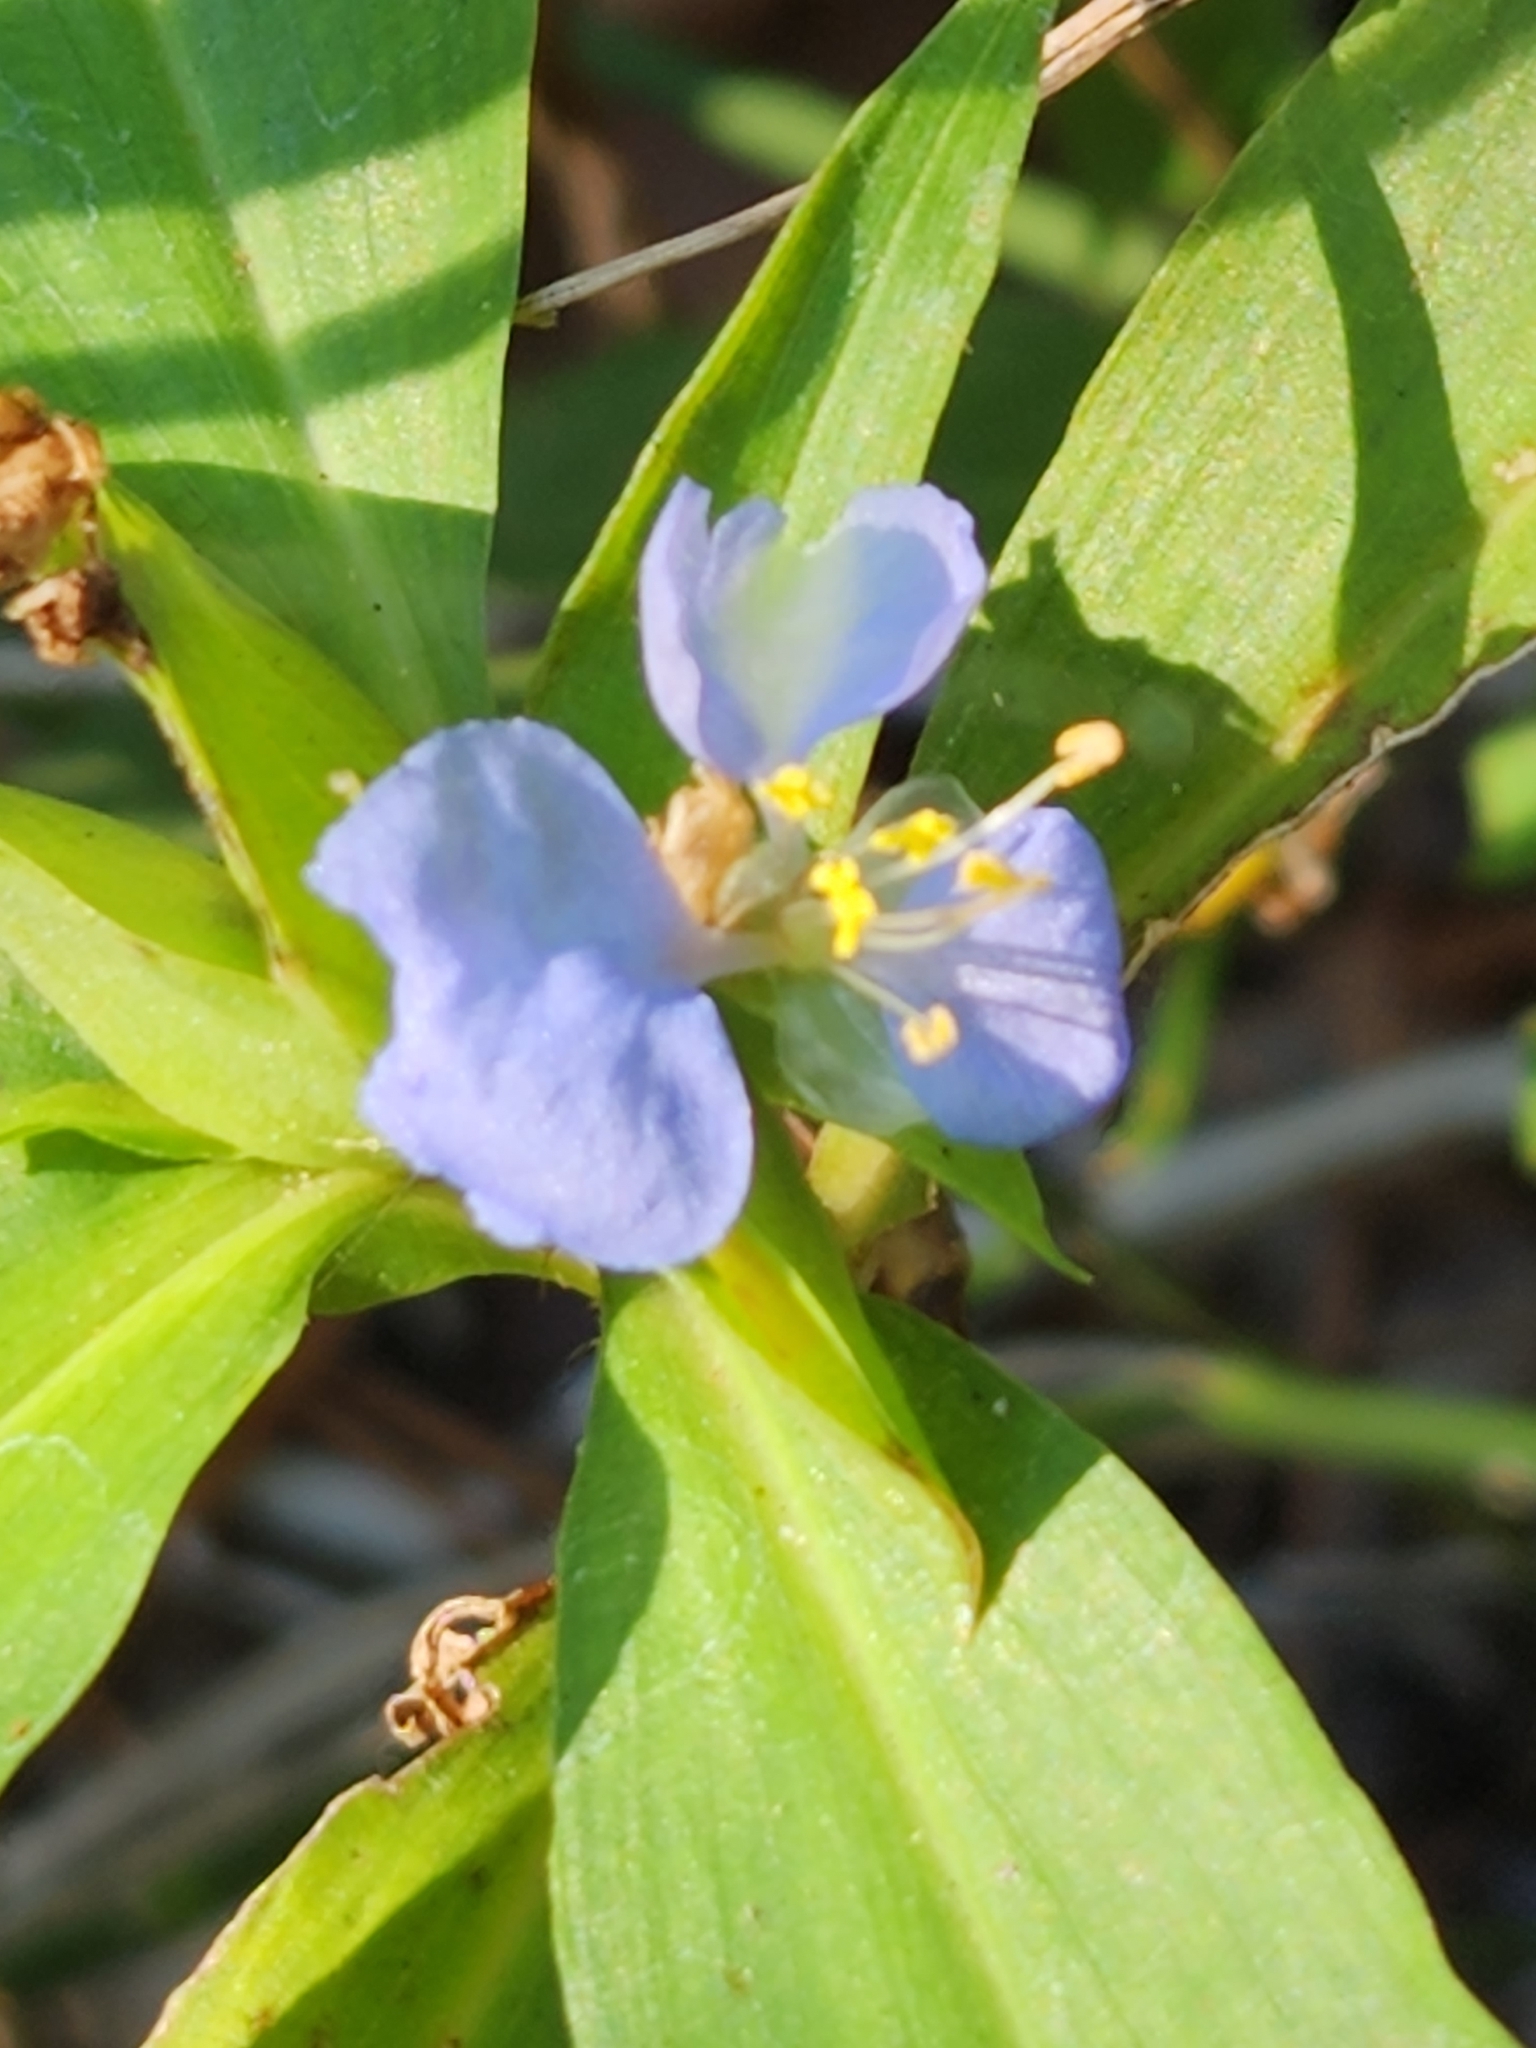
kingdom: Plantae
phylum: Tracheophyta
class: Liliopsida
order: Commelinales
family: Commelinaceae
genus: Commelina
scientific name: Commelina virginica
